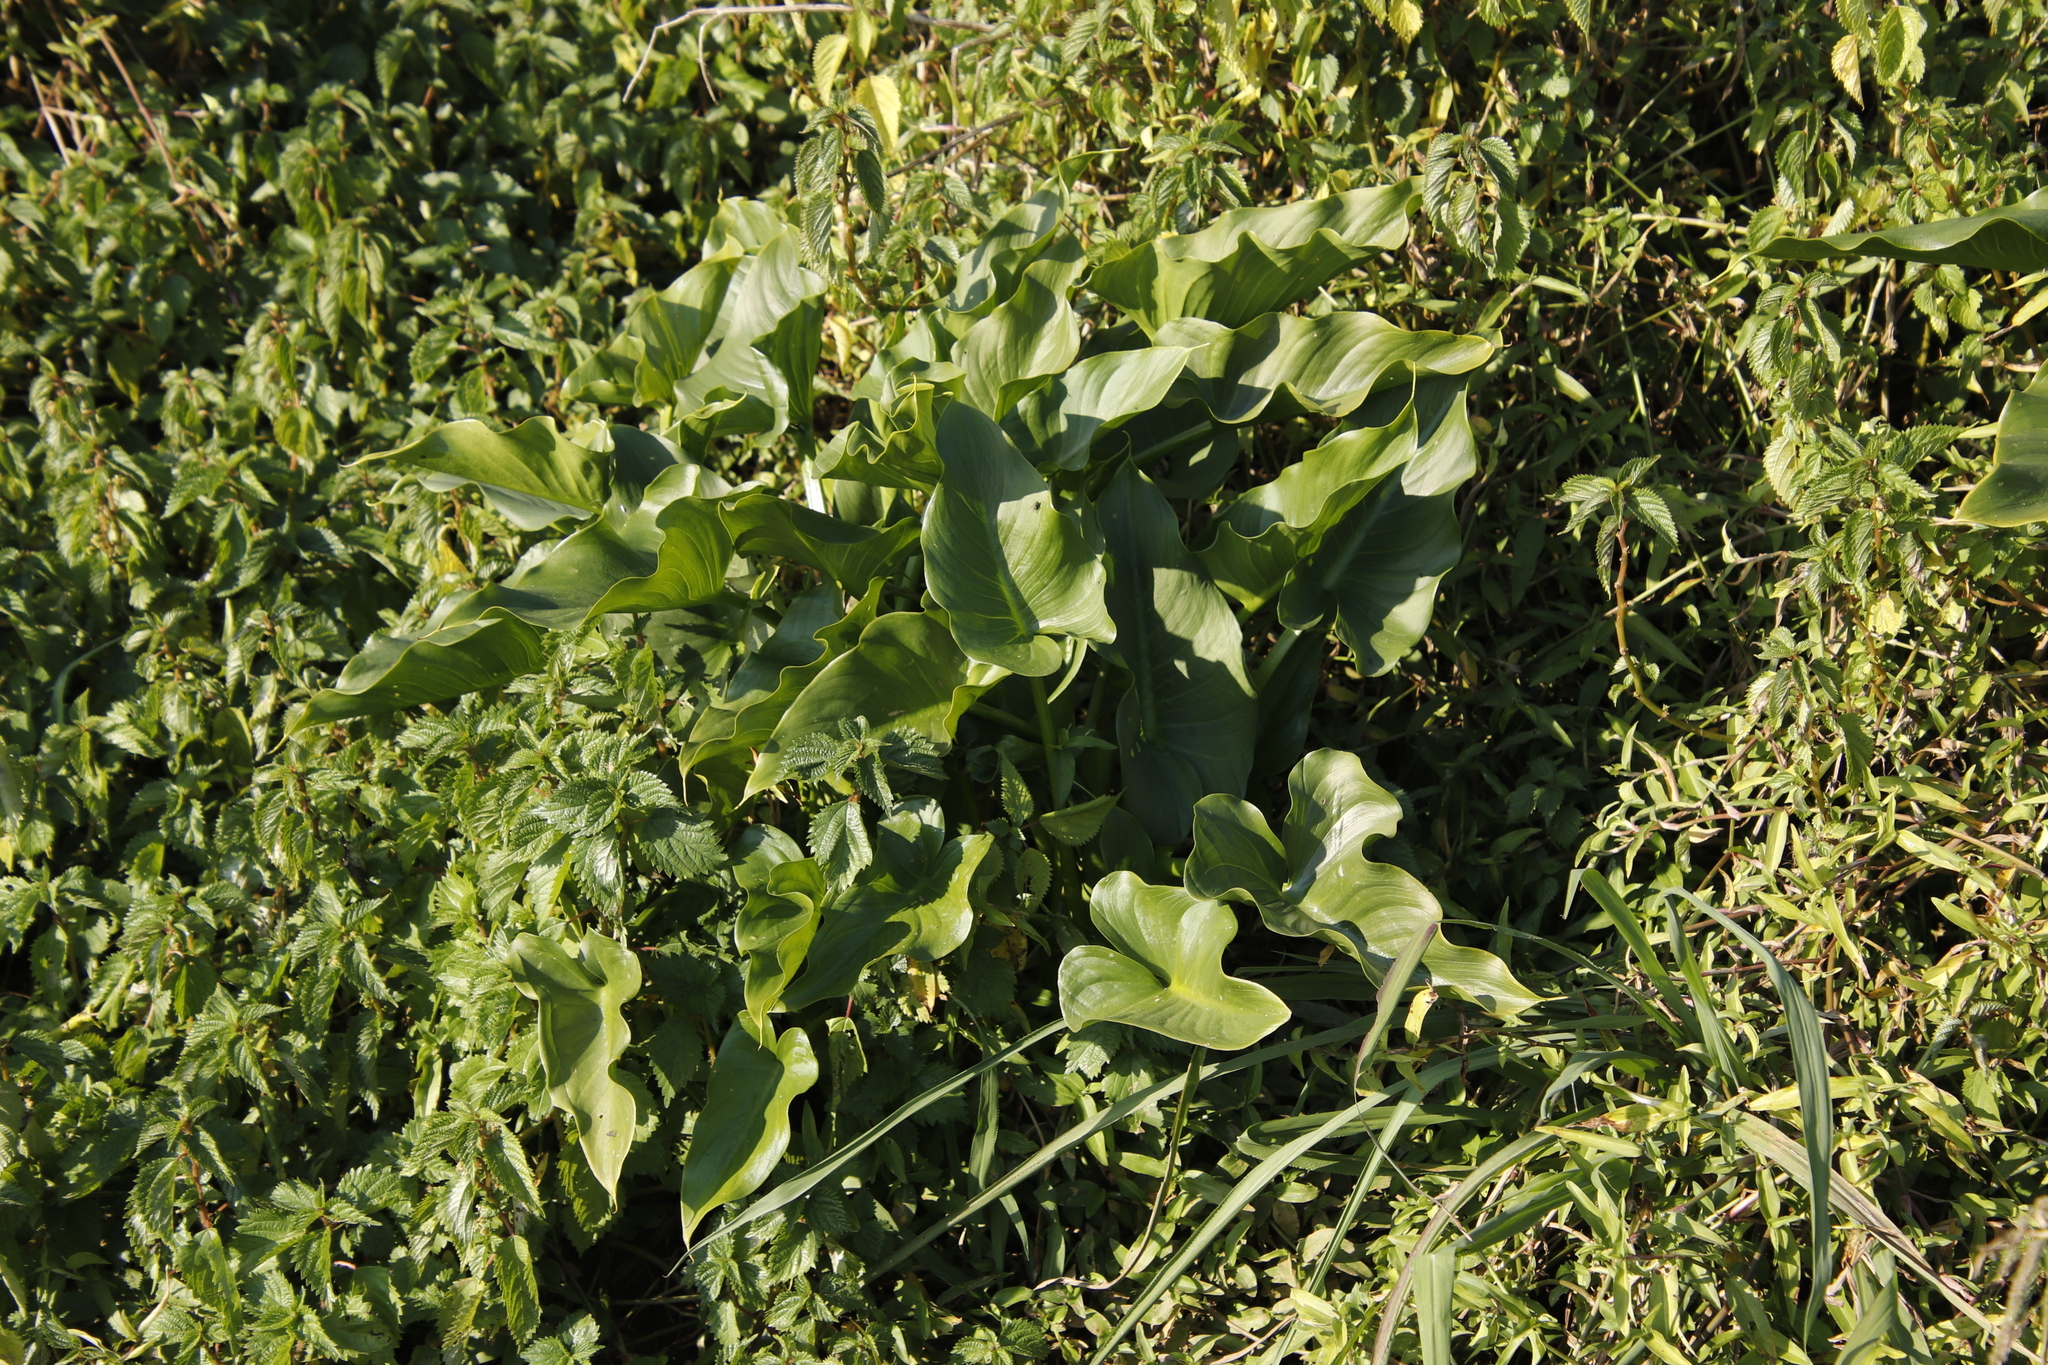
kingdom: Plantae
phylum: Tracheophyta
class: Liliopsida
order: Alismatales
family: Araceae
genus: Zantedeschia
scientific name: Zantedeschia aethiopica
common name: Altar-lily
